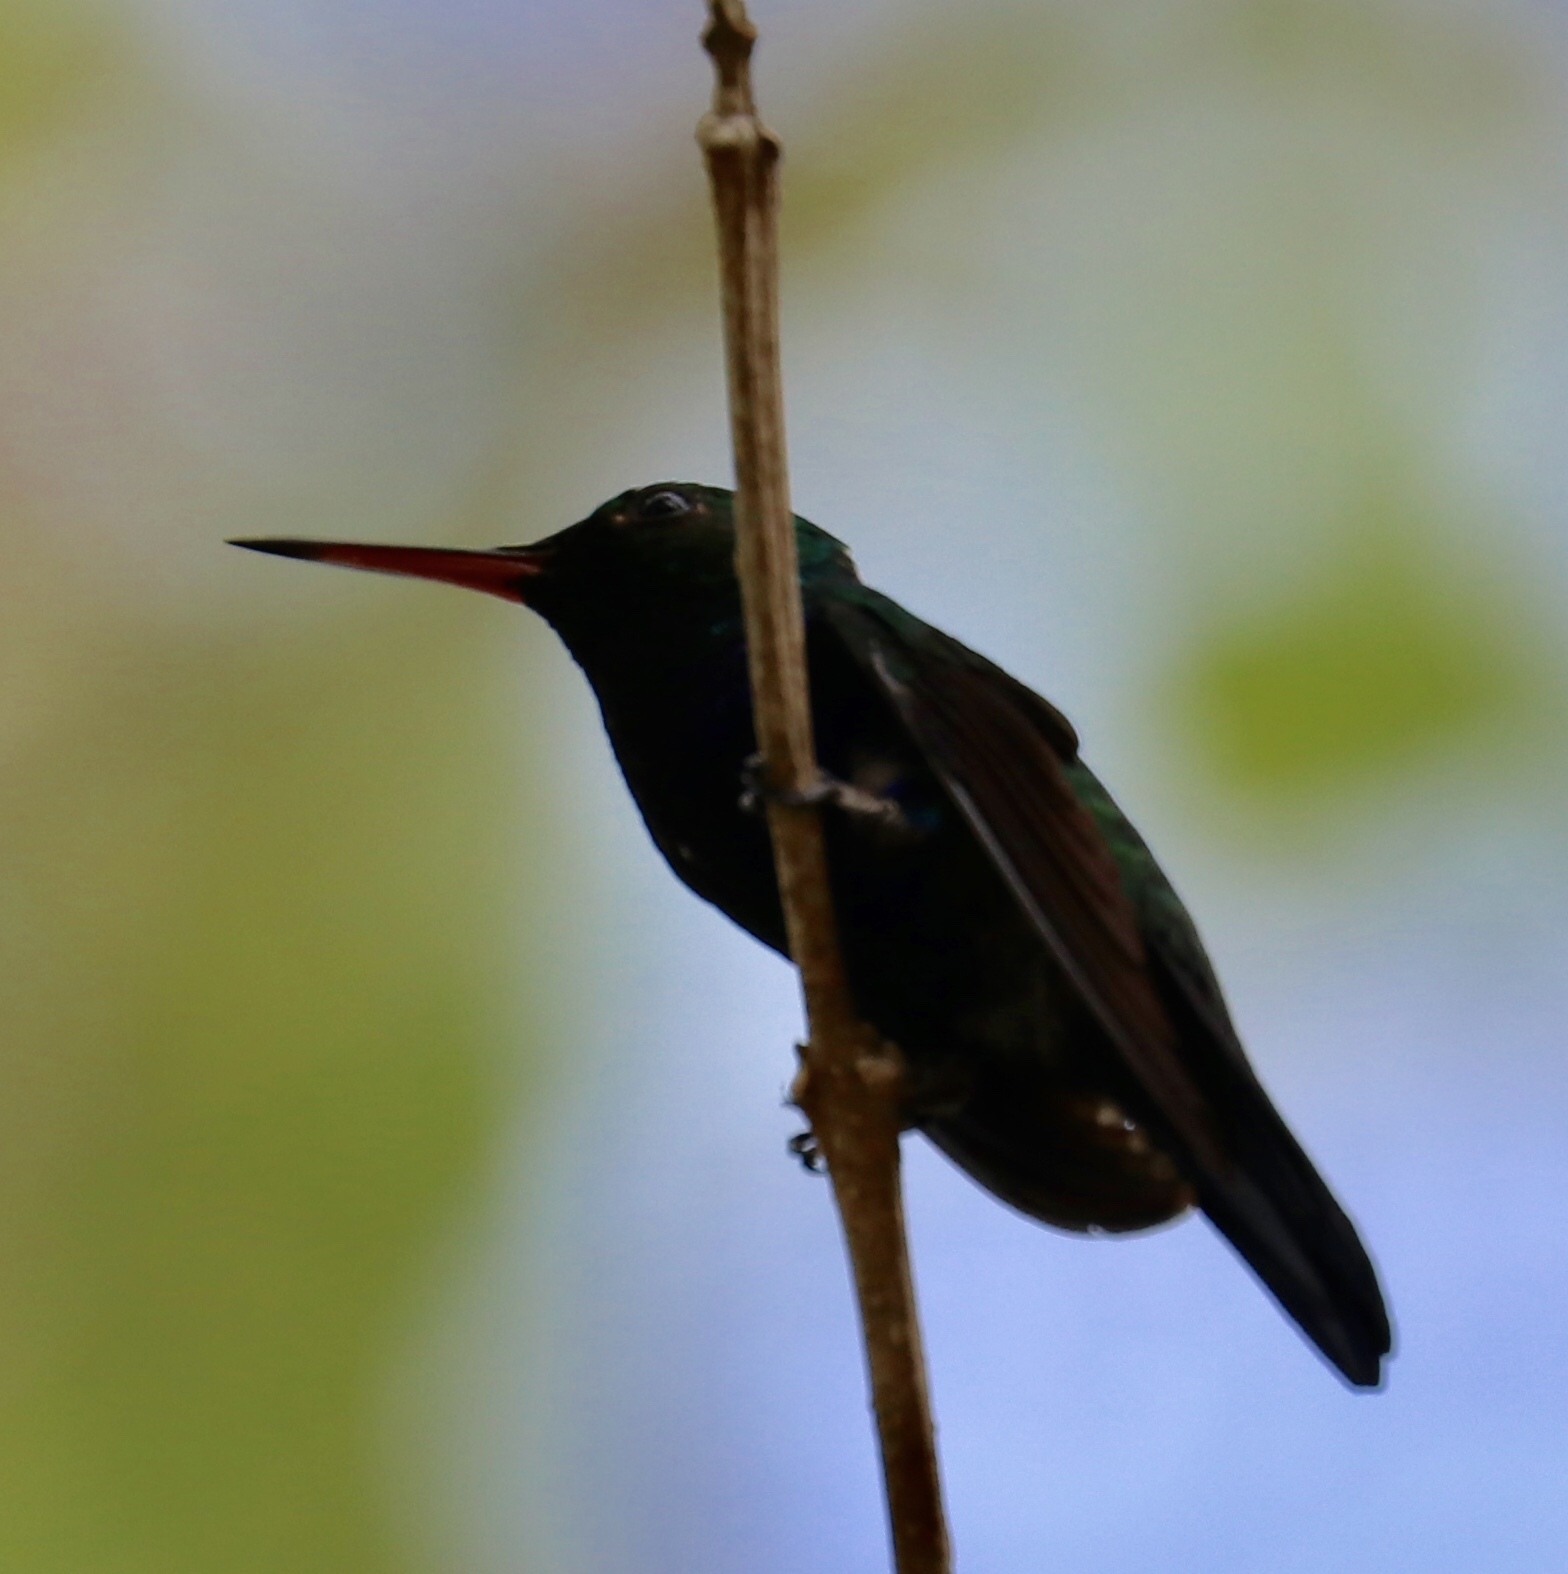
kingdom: Animalia
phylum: Chordata
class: Aves
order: Apodiformes
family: Trochilidae
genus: Chlorestes
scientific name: Chlorestes julie
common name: Violet-bellied hummingbird
